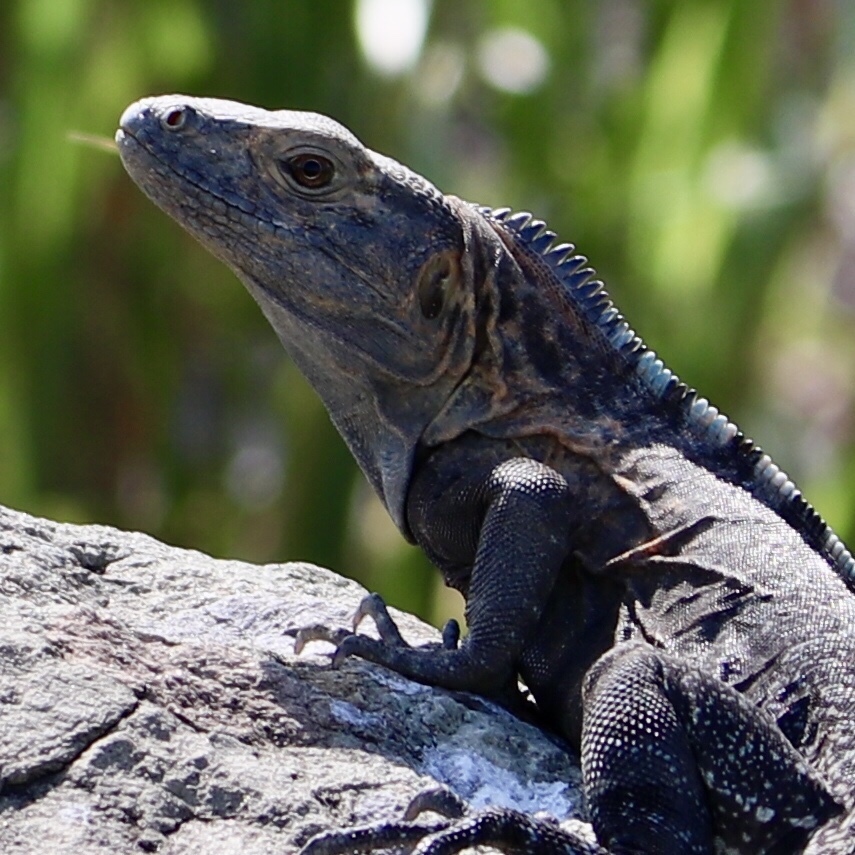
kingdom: Animalia
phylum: Chordata
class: Squamata
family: Iguanidae
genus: Ctenosaura
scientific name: Ctenosaura similis
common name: Black spiny-tailed iguana
